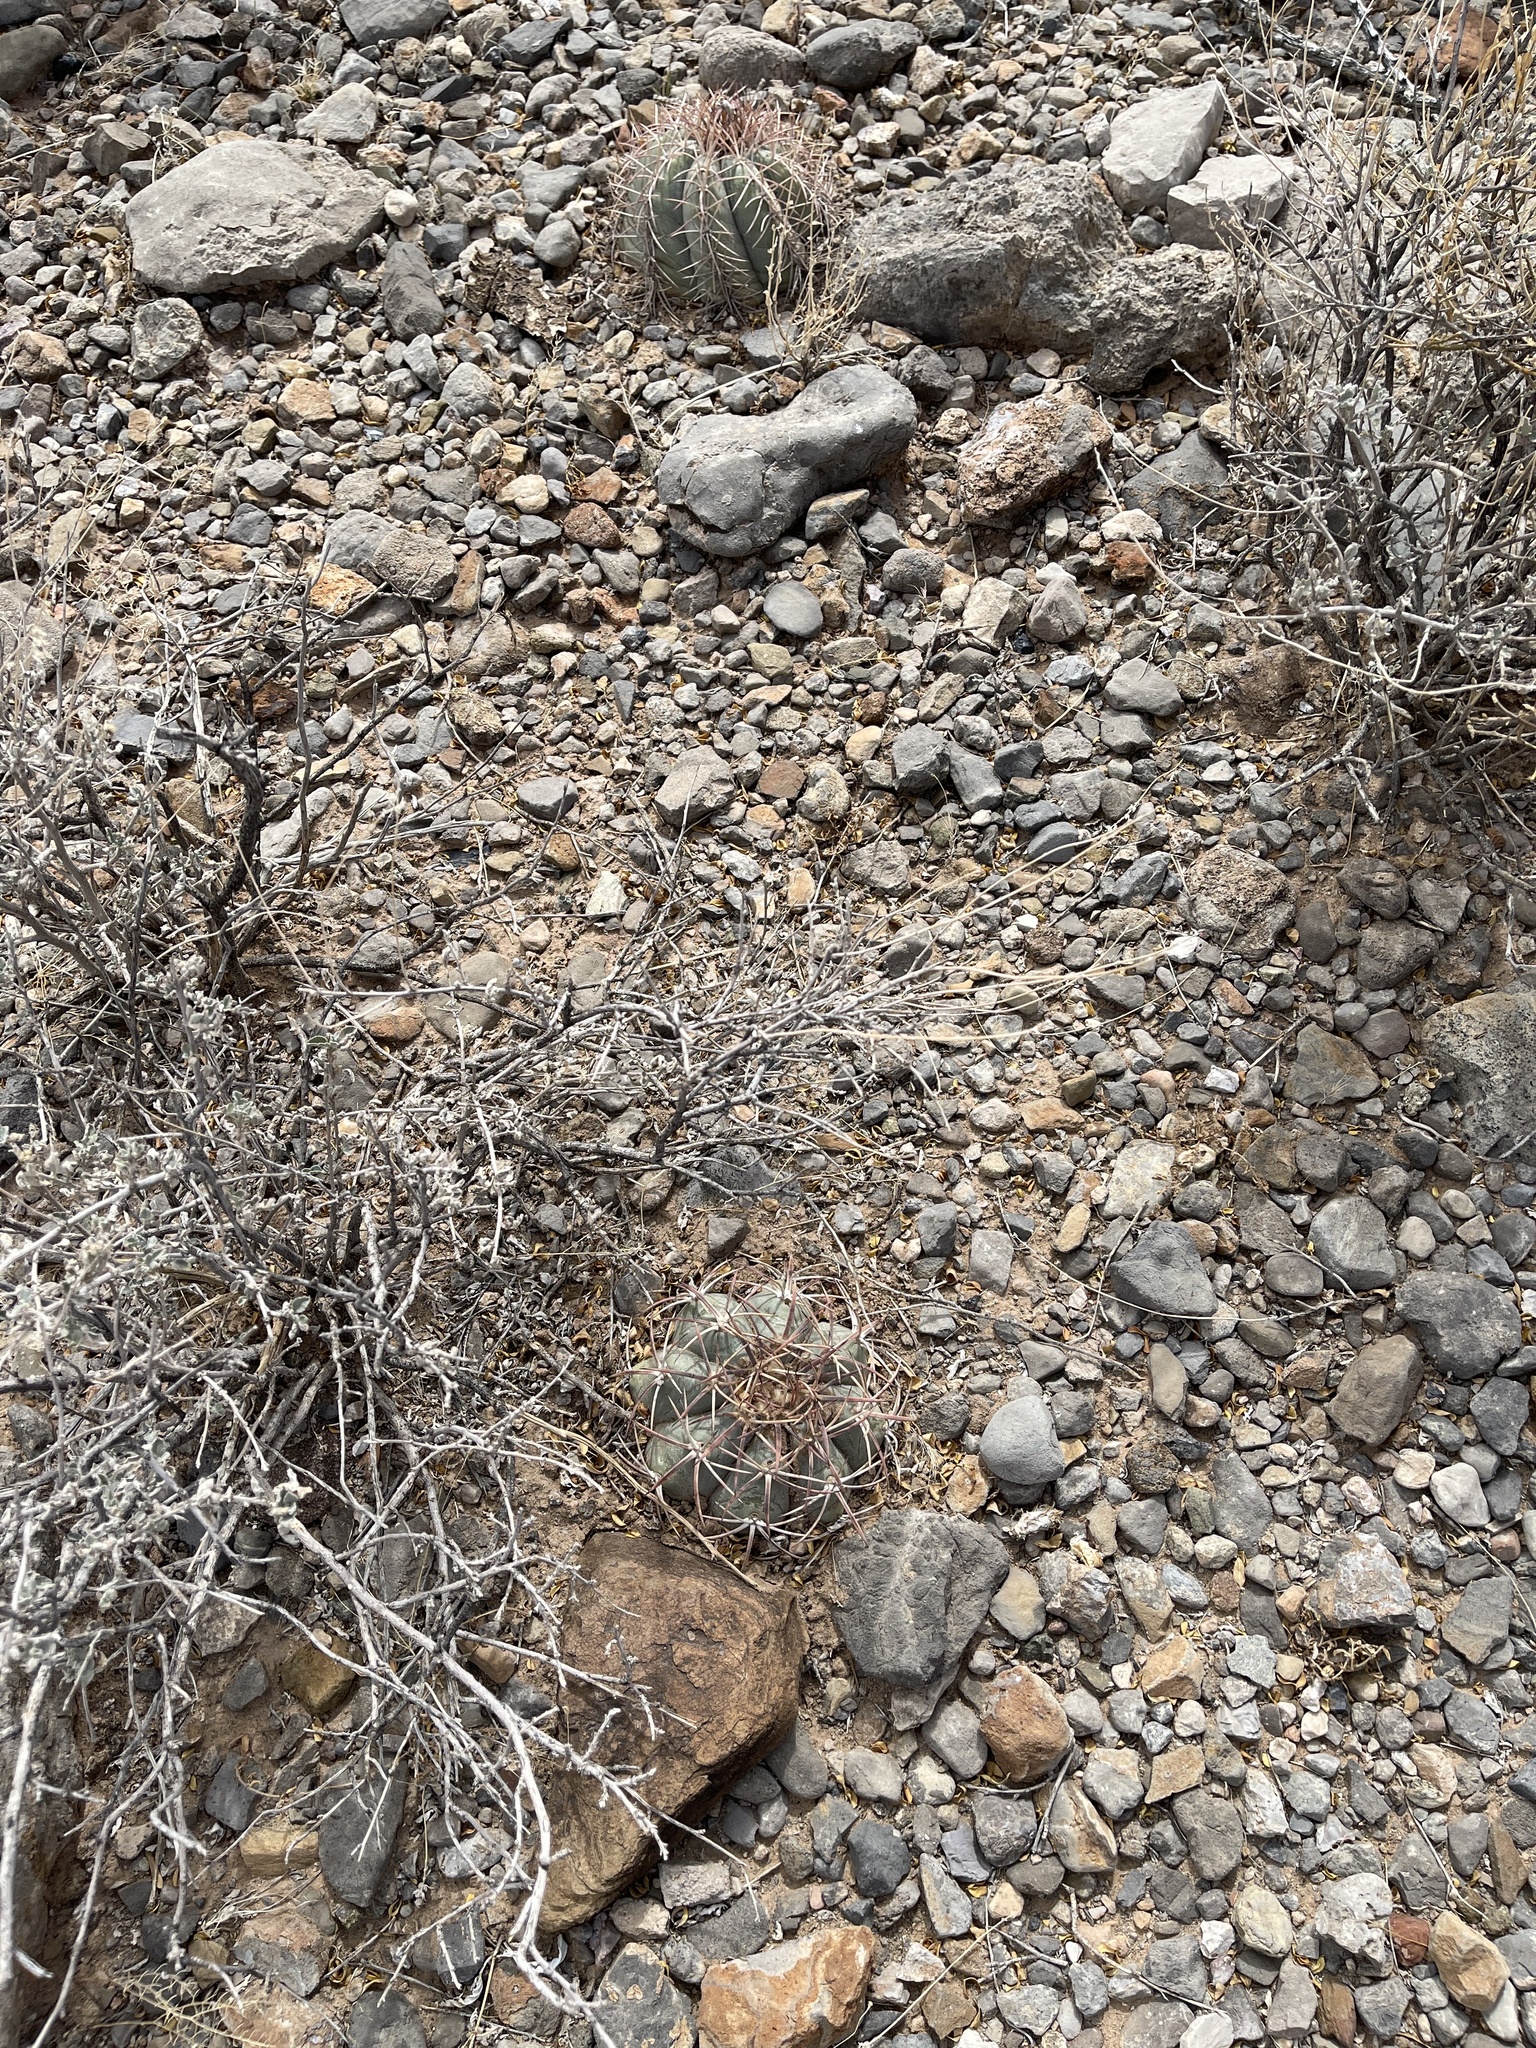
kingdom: Plantae
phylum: Tracheophyta
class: Magnoliopsida
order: Caryophyllales
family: Cactaceae
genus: Echinocactus
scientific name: Echinocactus horizonthalonius
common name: Devilshead
